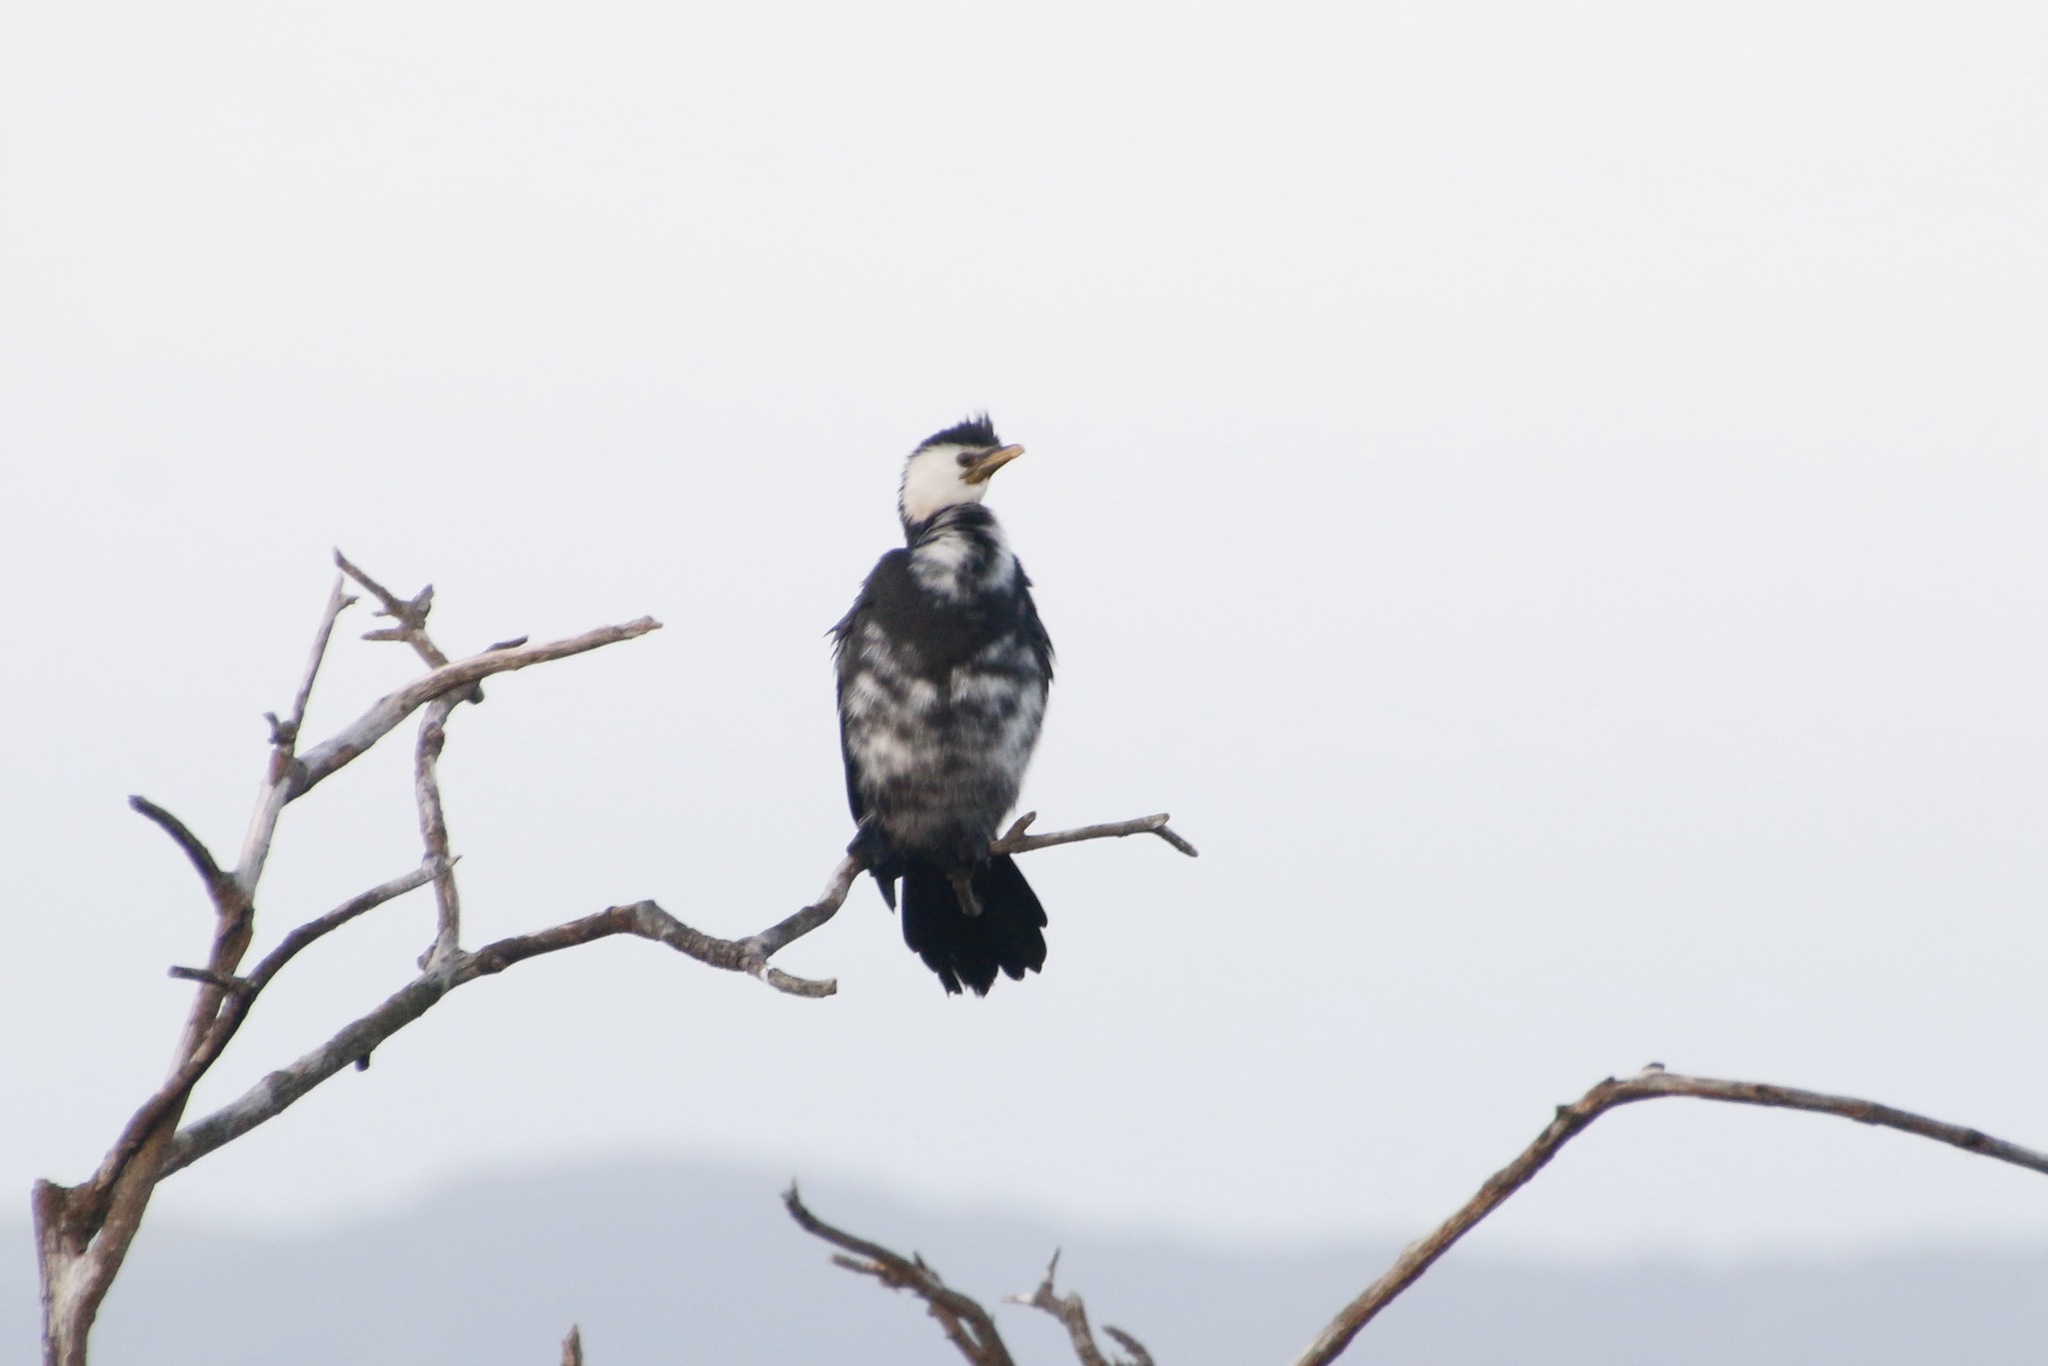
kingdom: Animalia
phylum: Chordata
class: Aves
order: Suliformes
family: Phalacrocoracidae
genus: Microcarbo
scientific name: Microcarbo melanoleucos
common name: Little pied cormorant
